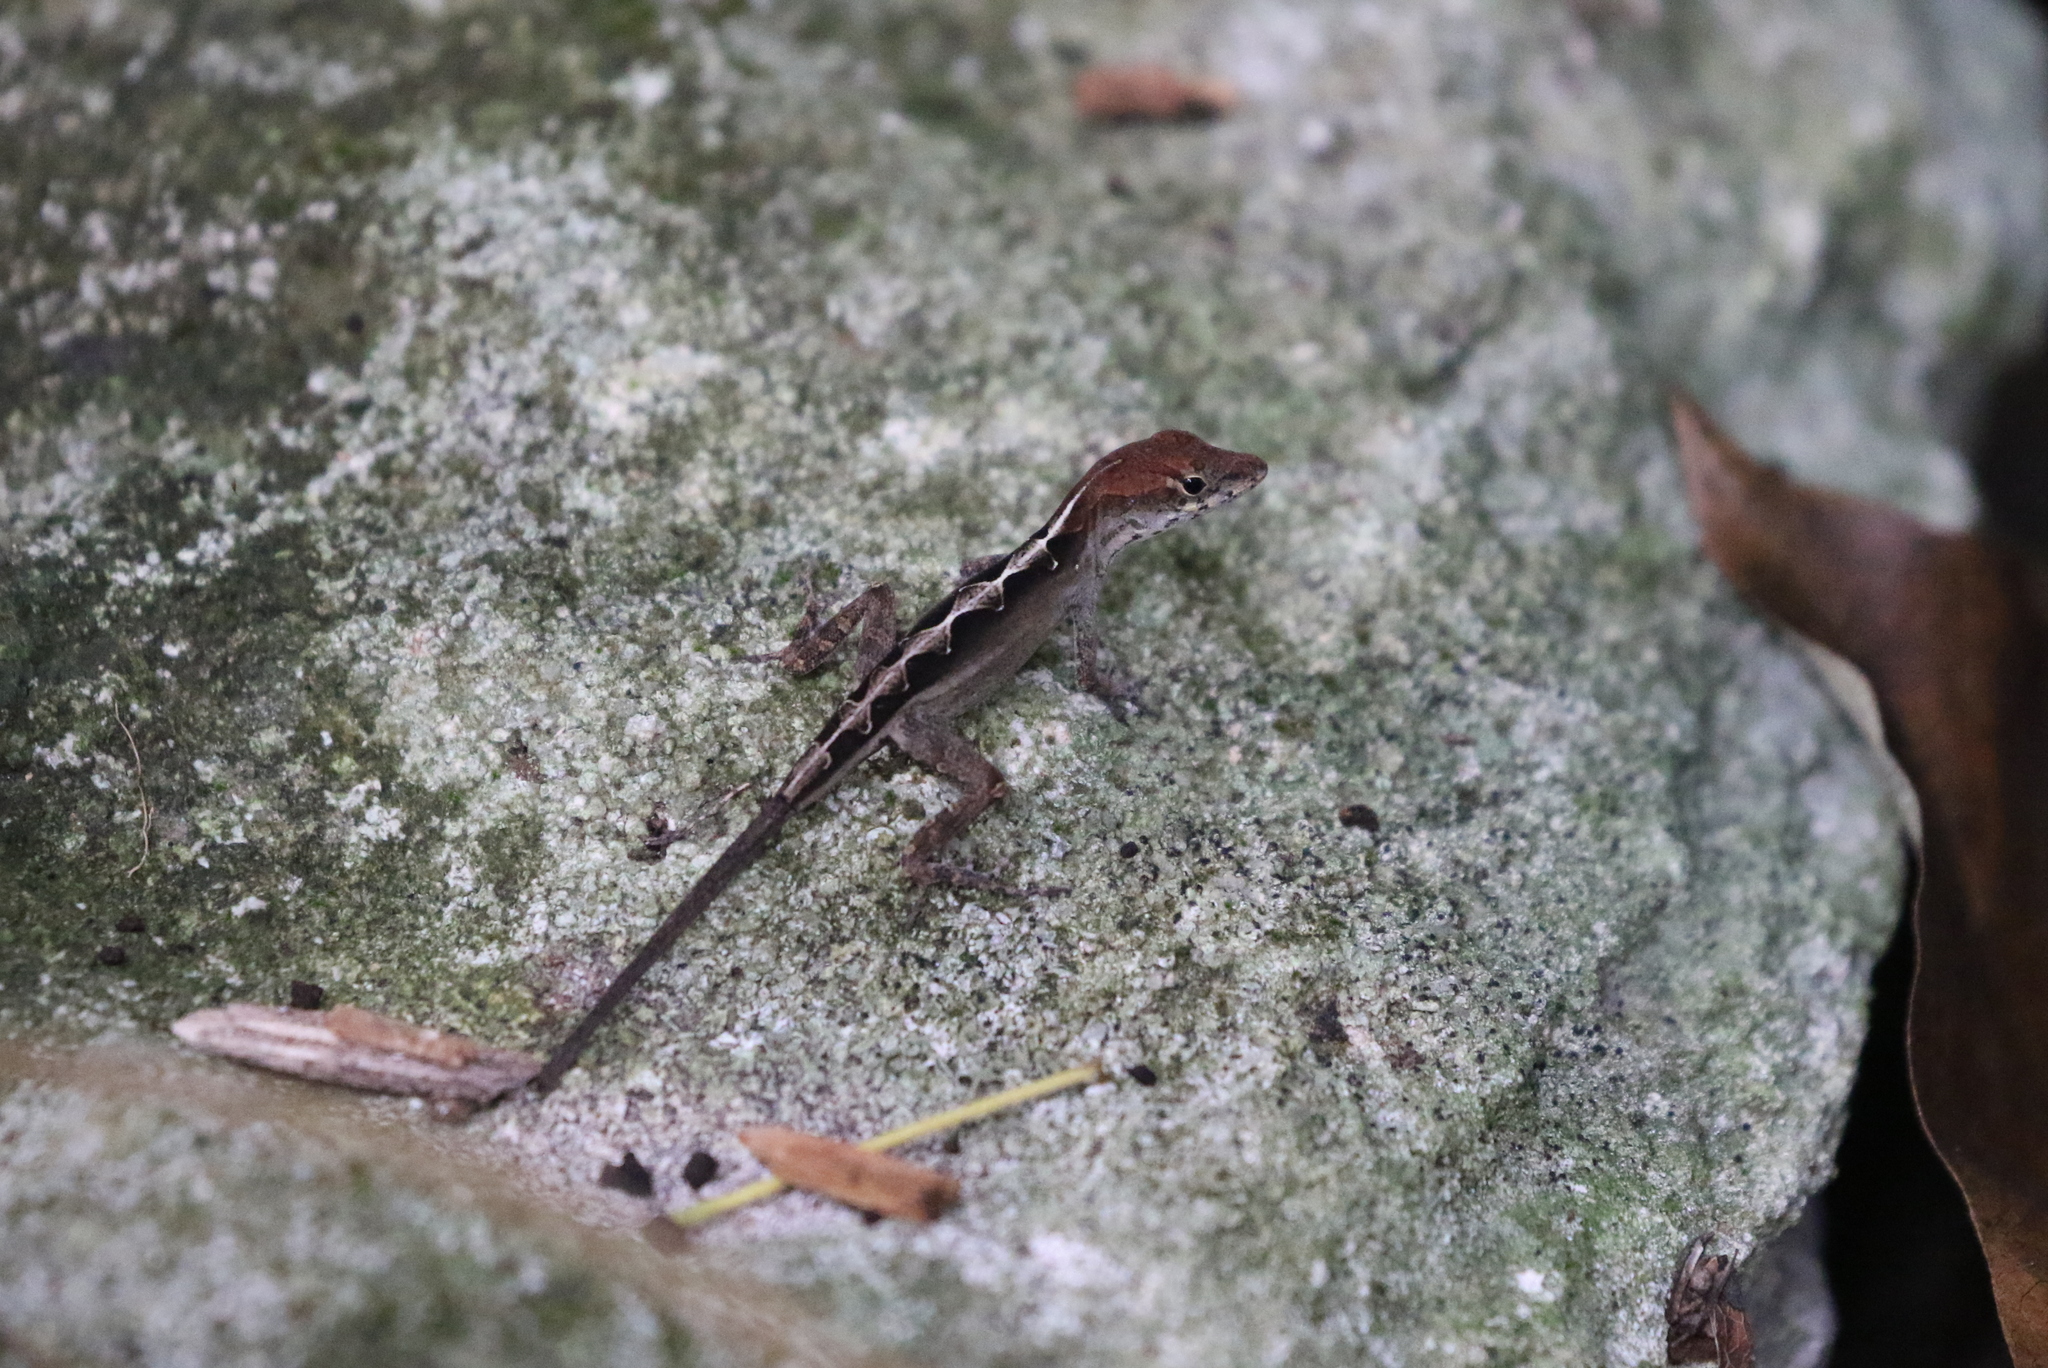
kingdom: Animalia
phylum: Chordata
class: Squamata
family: Dactyloidae
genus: Anolis
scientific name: Anolis sagrei
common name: Brown anole
